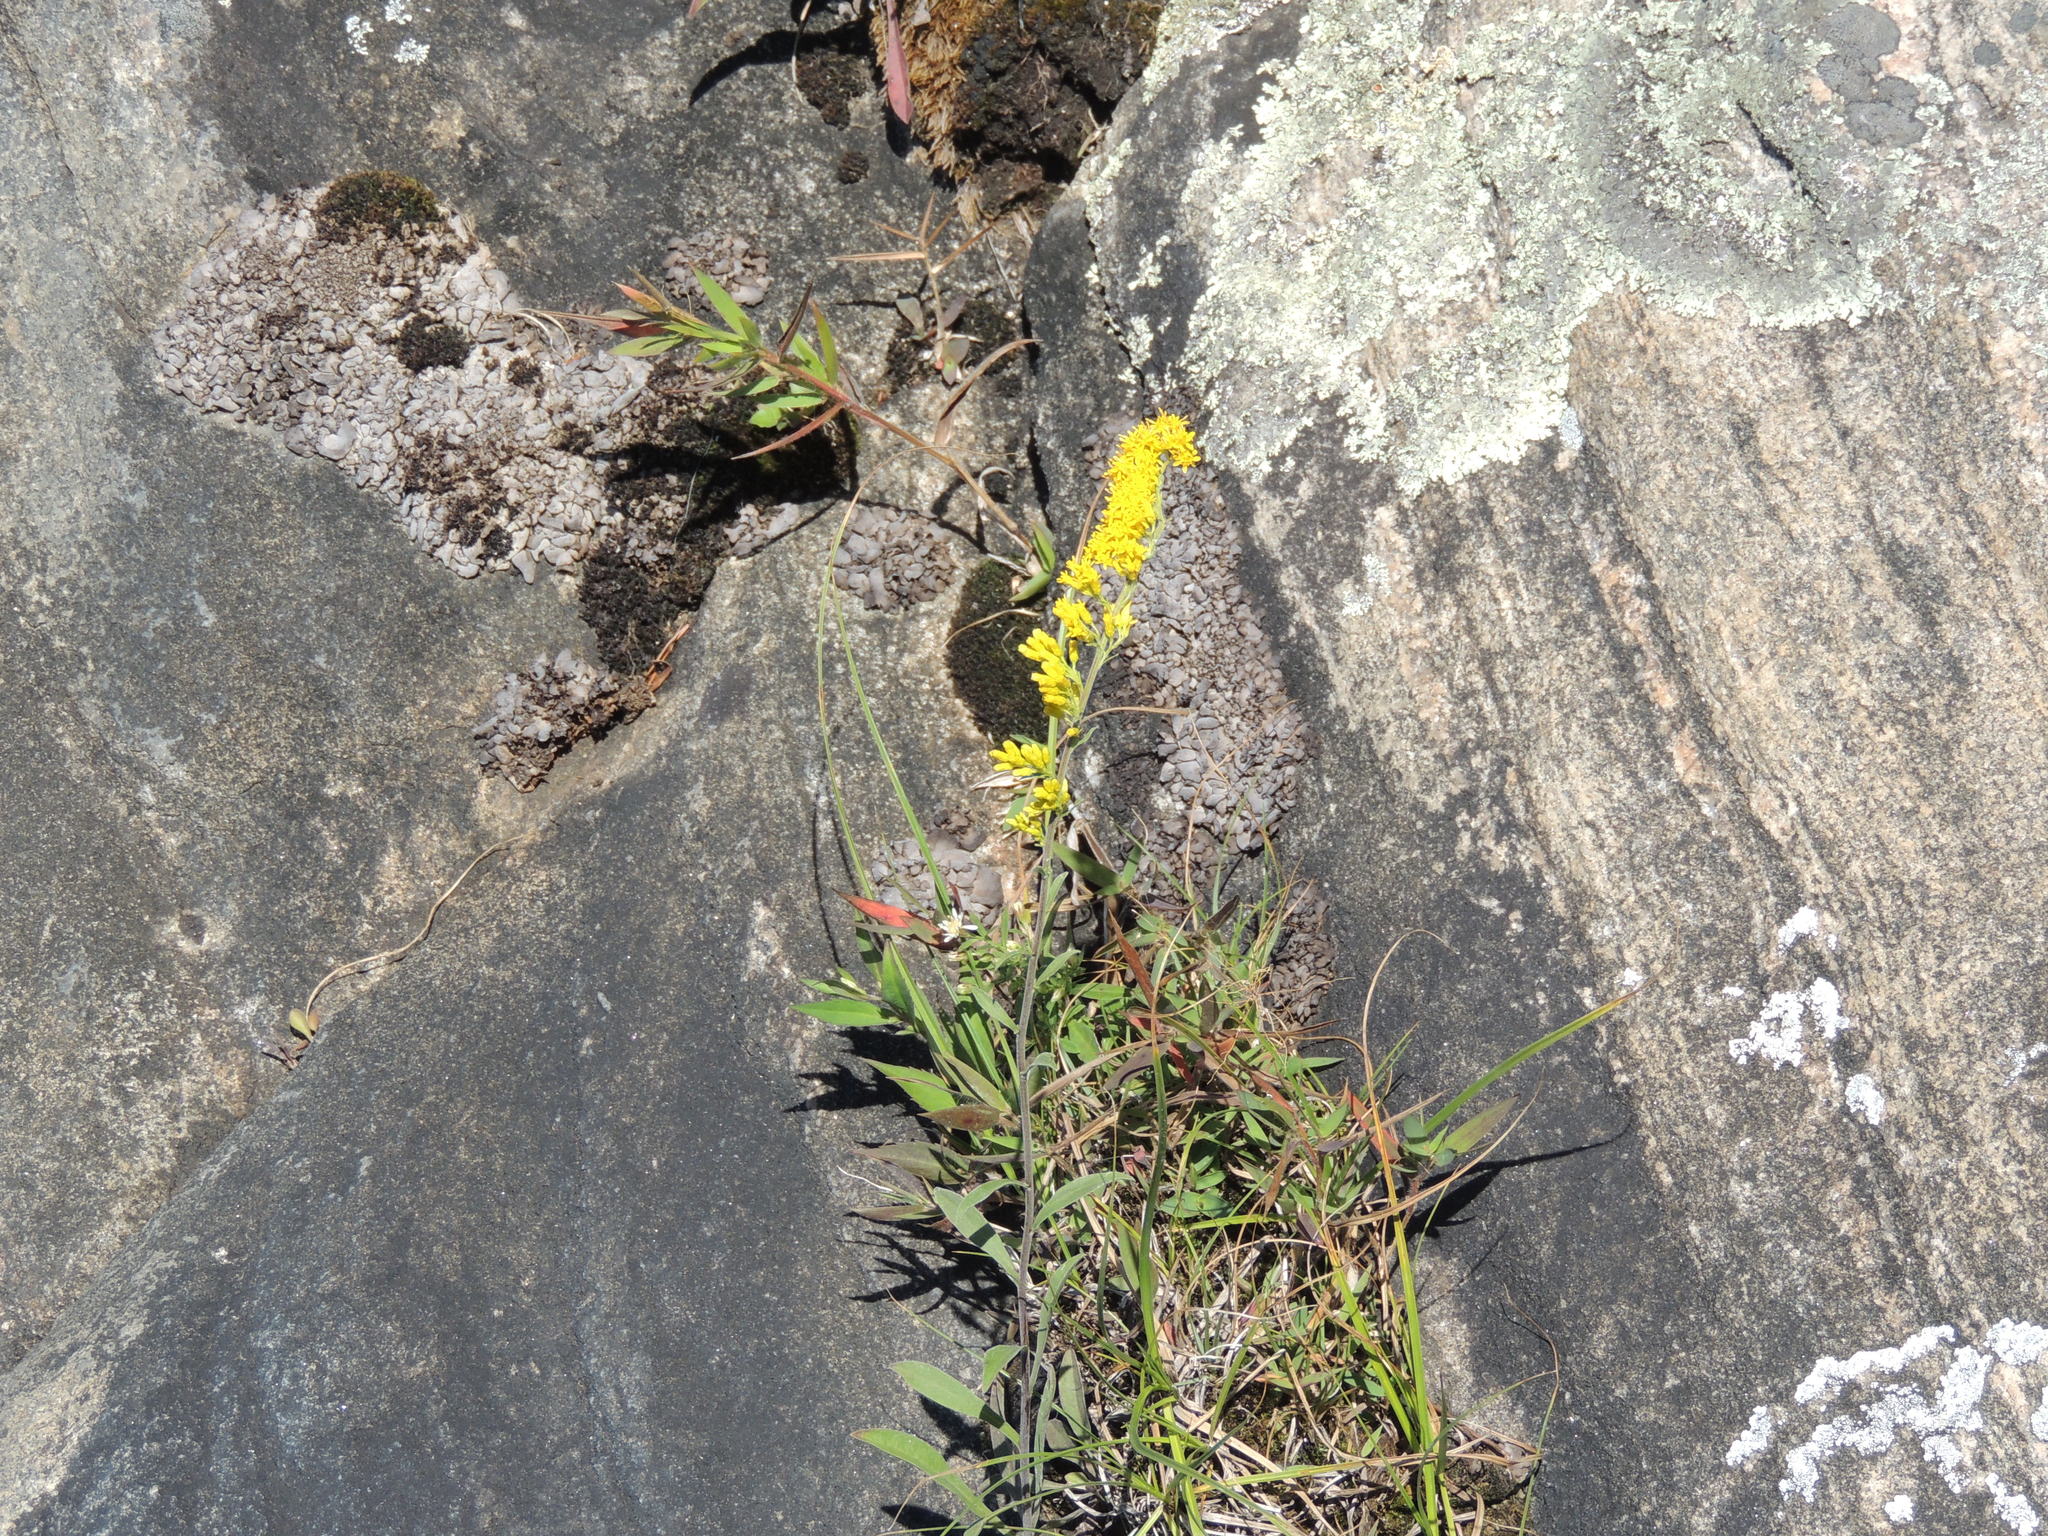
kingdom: Plantae
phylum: Tracheophyta
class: Magnoliopsida
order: Asterales
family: Asteraceae
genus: Solidago
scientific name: Solidago nemoralis
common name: Grey goldenrod
